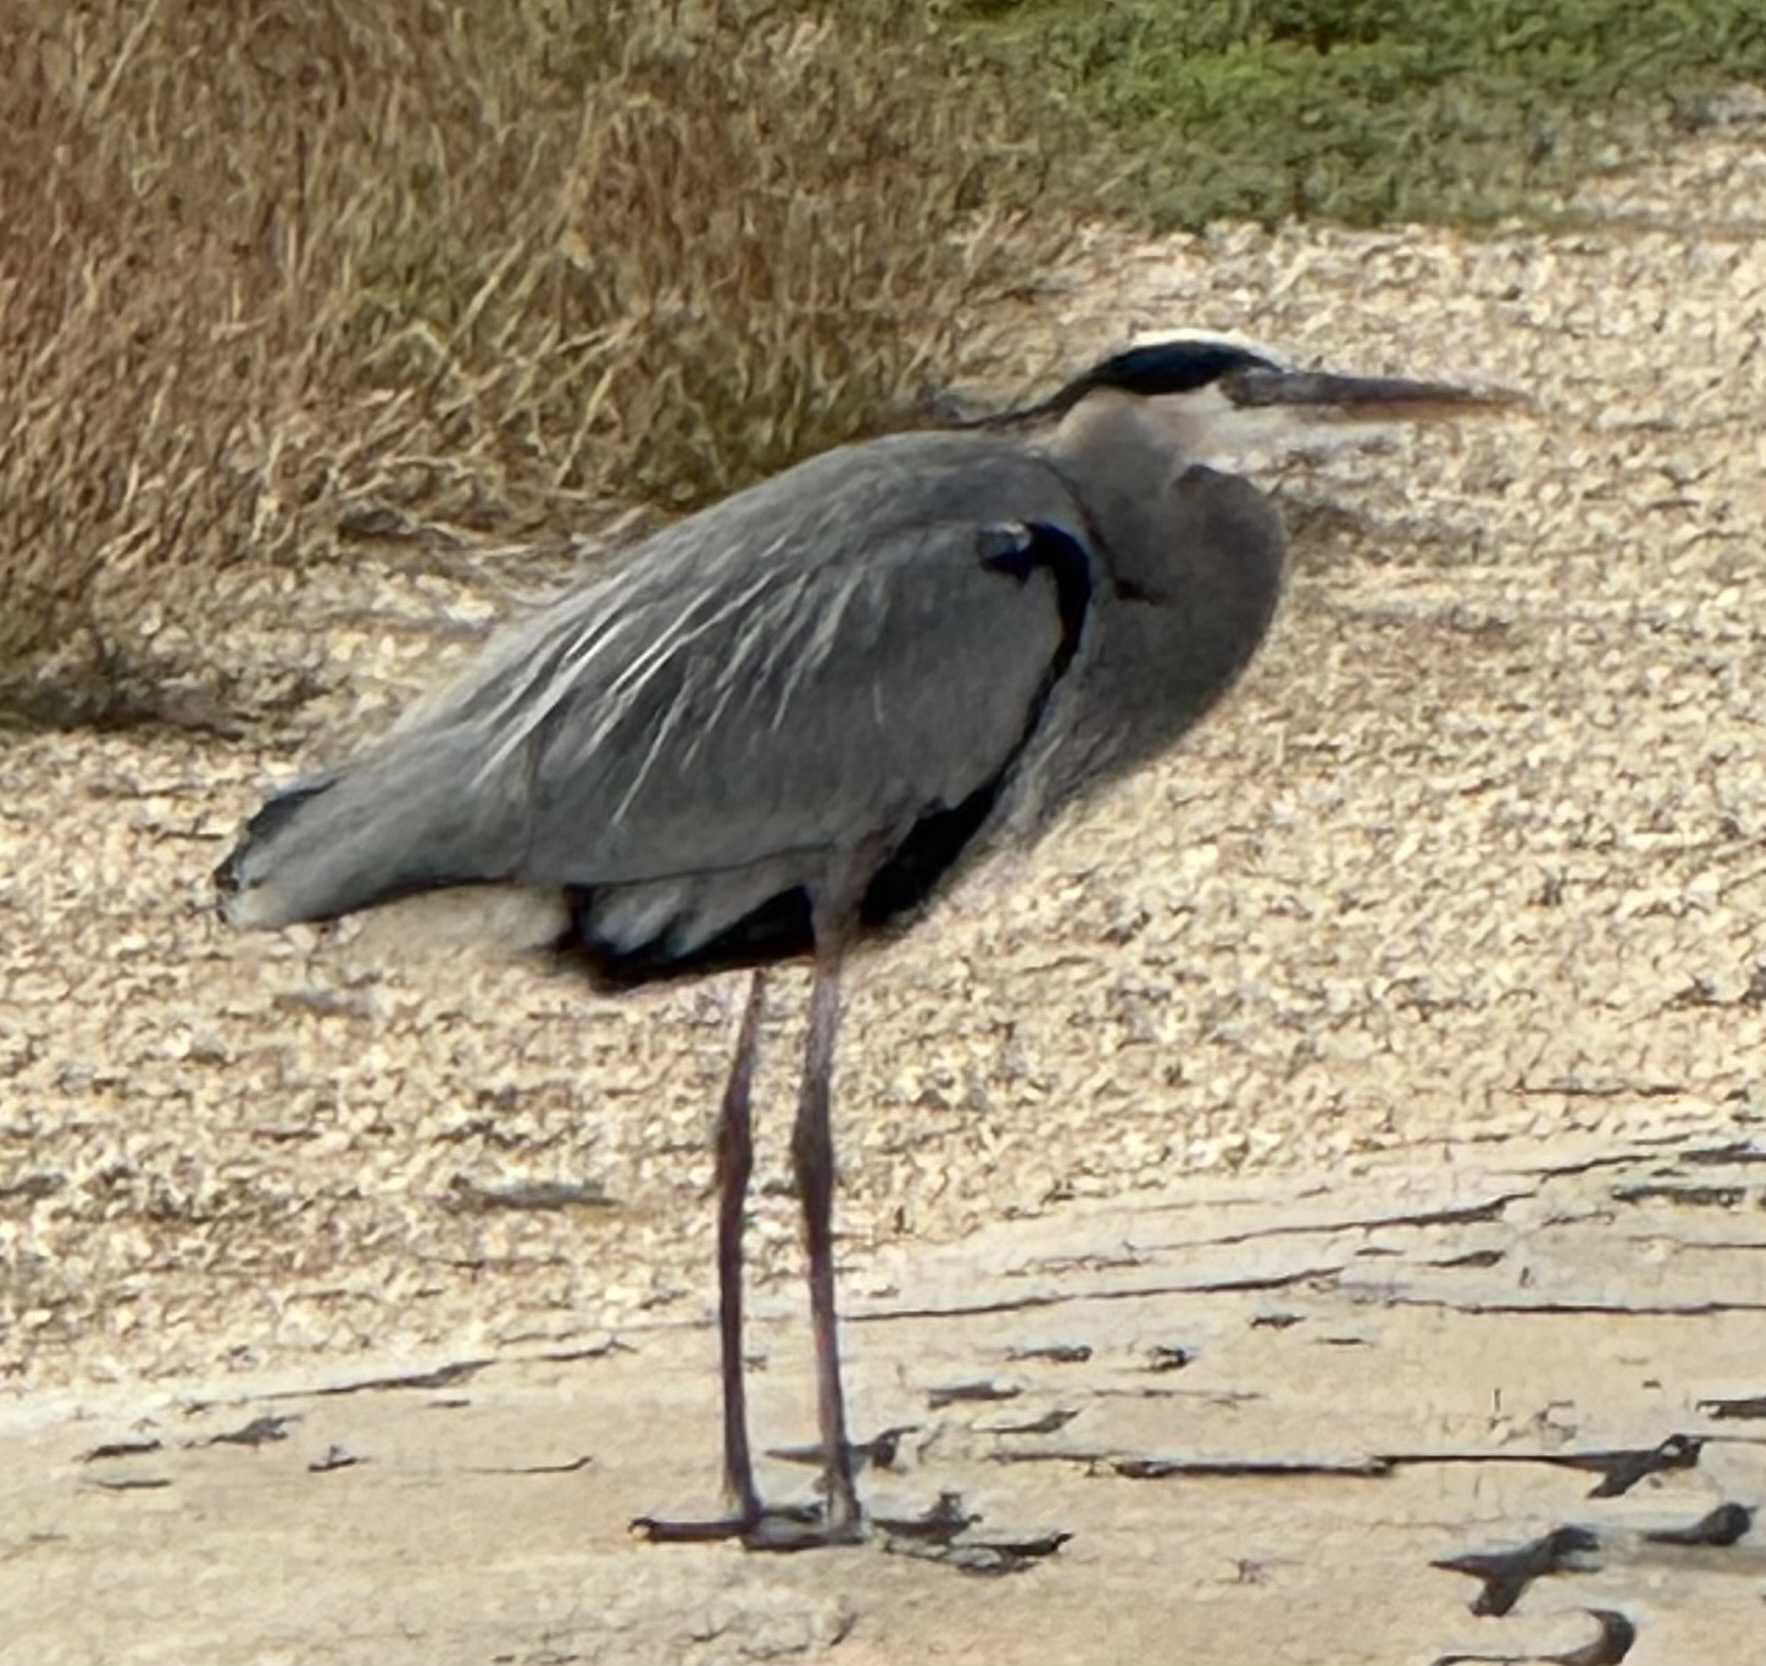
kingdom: Animalia
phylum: Chordata
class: Aves
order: Pelecaniformes
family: Ardeidae
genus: Ardea
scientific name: Ardea herodias
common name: Great blue heron
